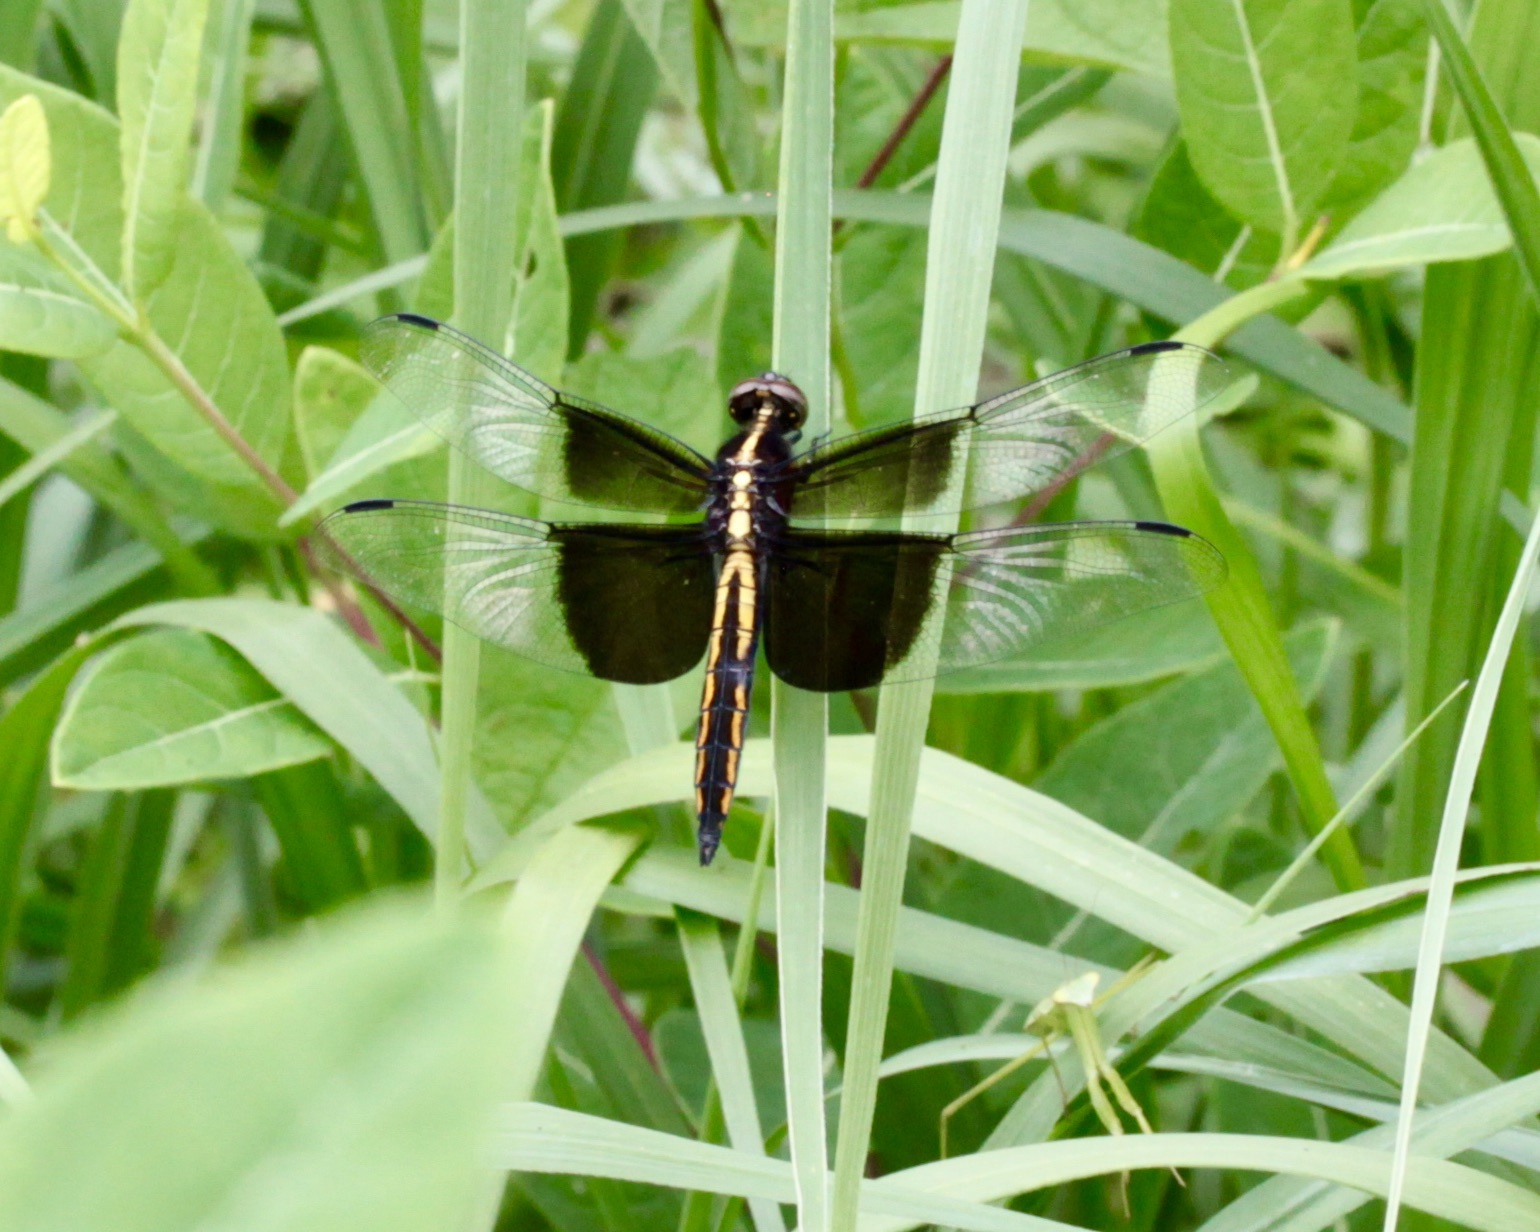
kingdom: Animalia
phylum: Arthropoda
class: Insecta
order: Odonata
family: Libellulidae
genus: Libellula
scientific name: Libellula luctuosa
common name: Widow skimmer
